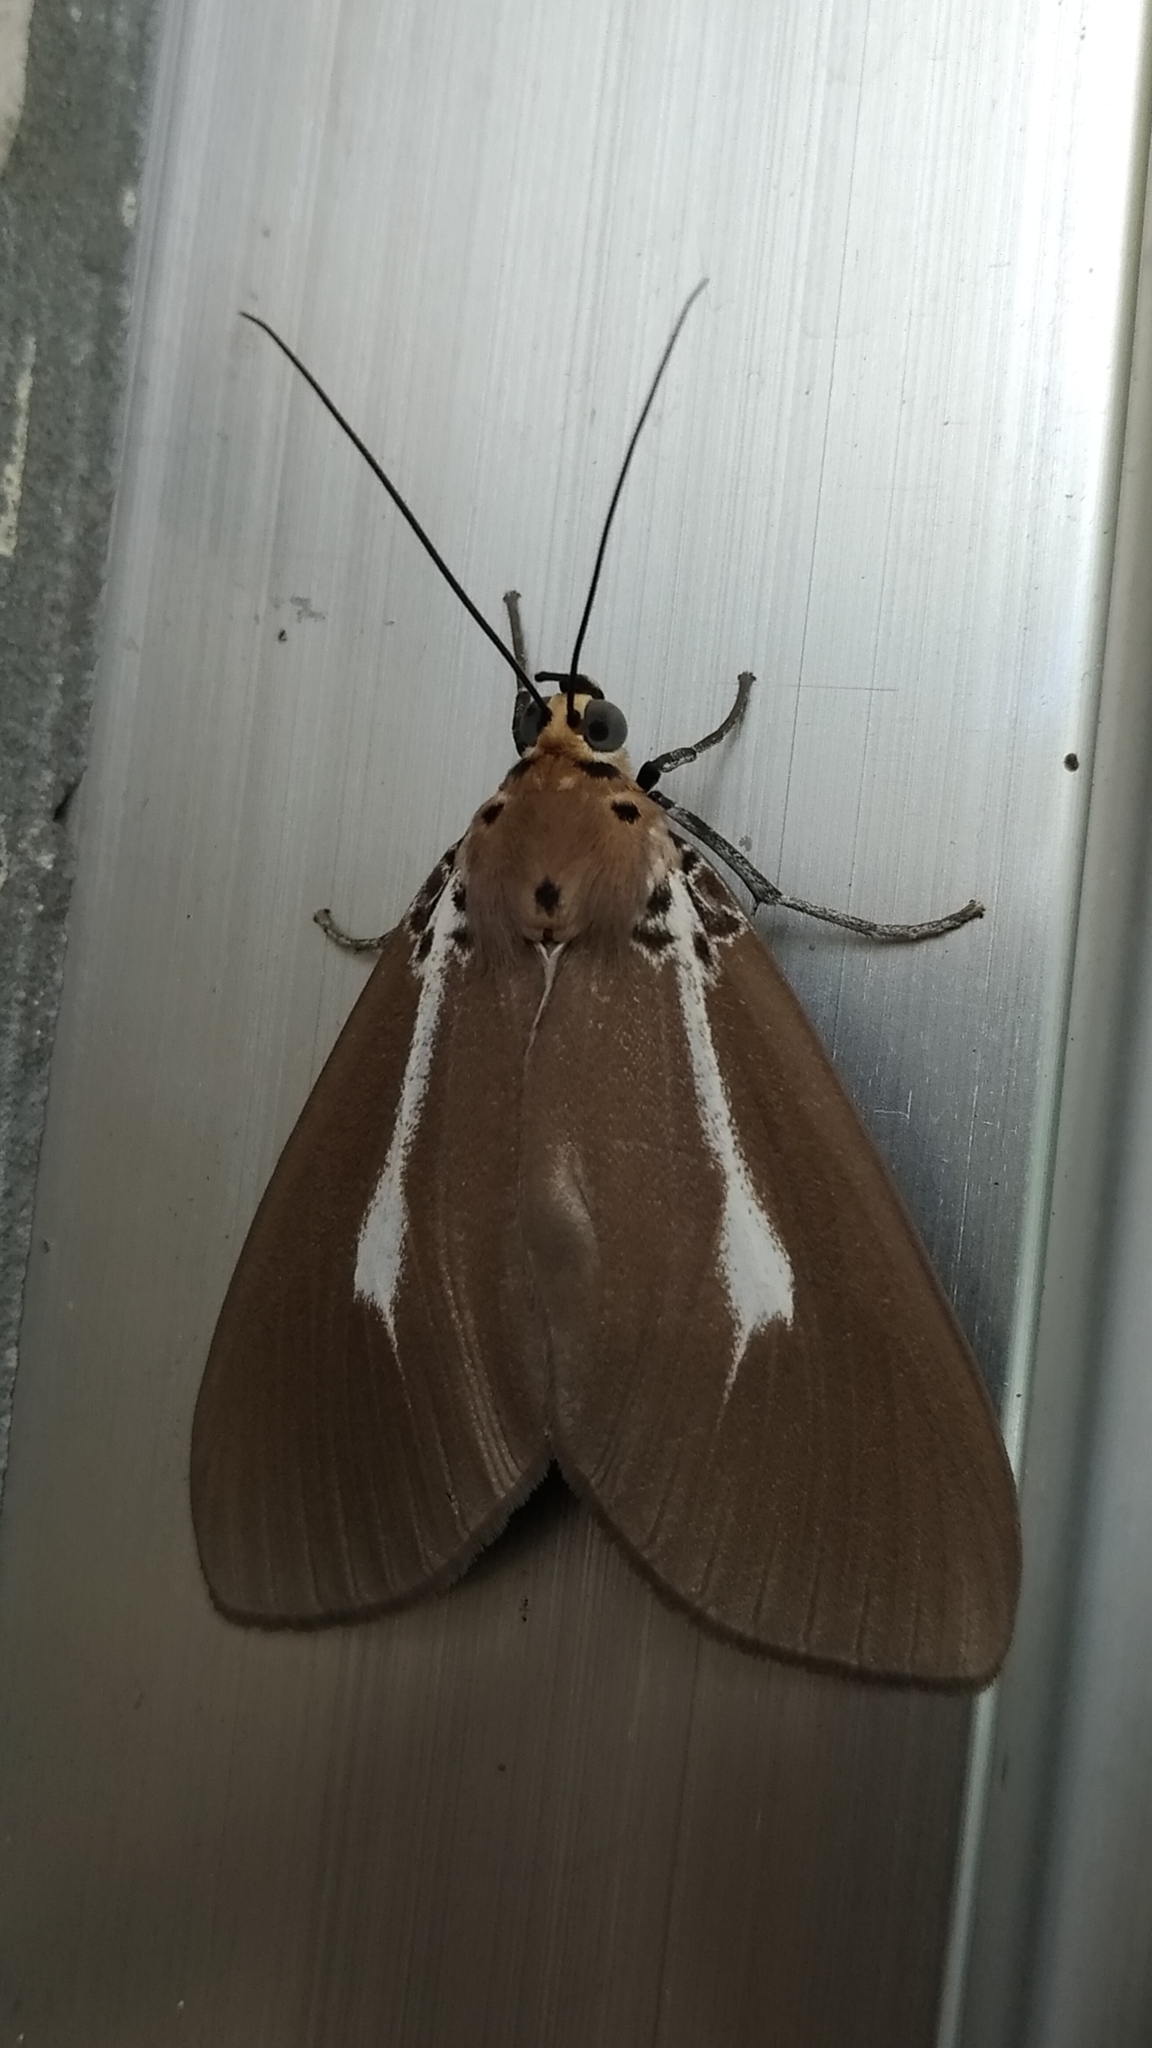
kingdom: Animalia
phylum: Arthropoda
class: Insecta
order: Lepidoptera
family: Erebidae
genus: Asota
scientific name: Asota heliconia
